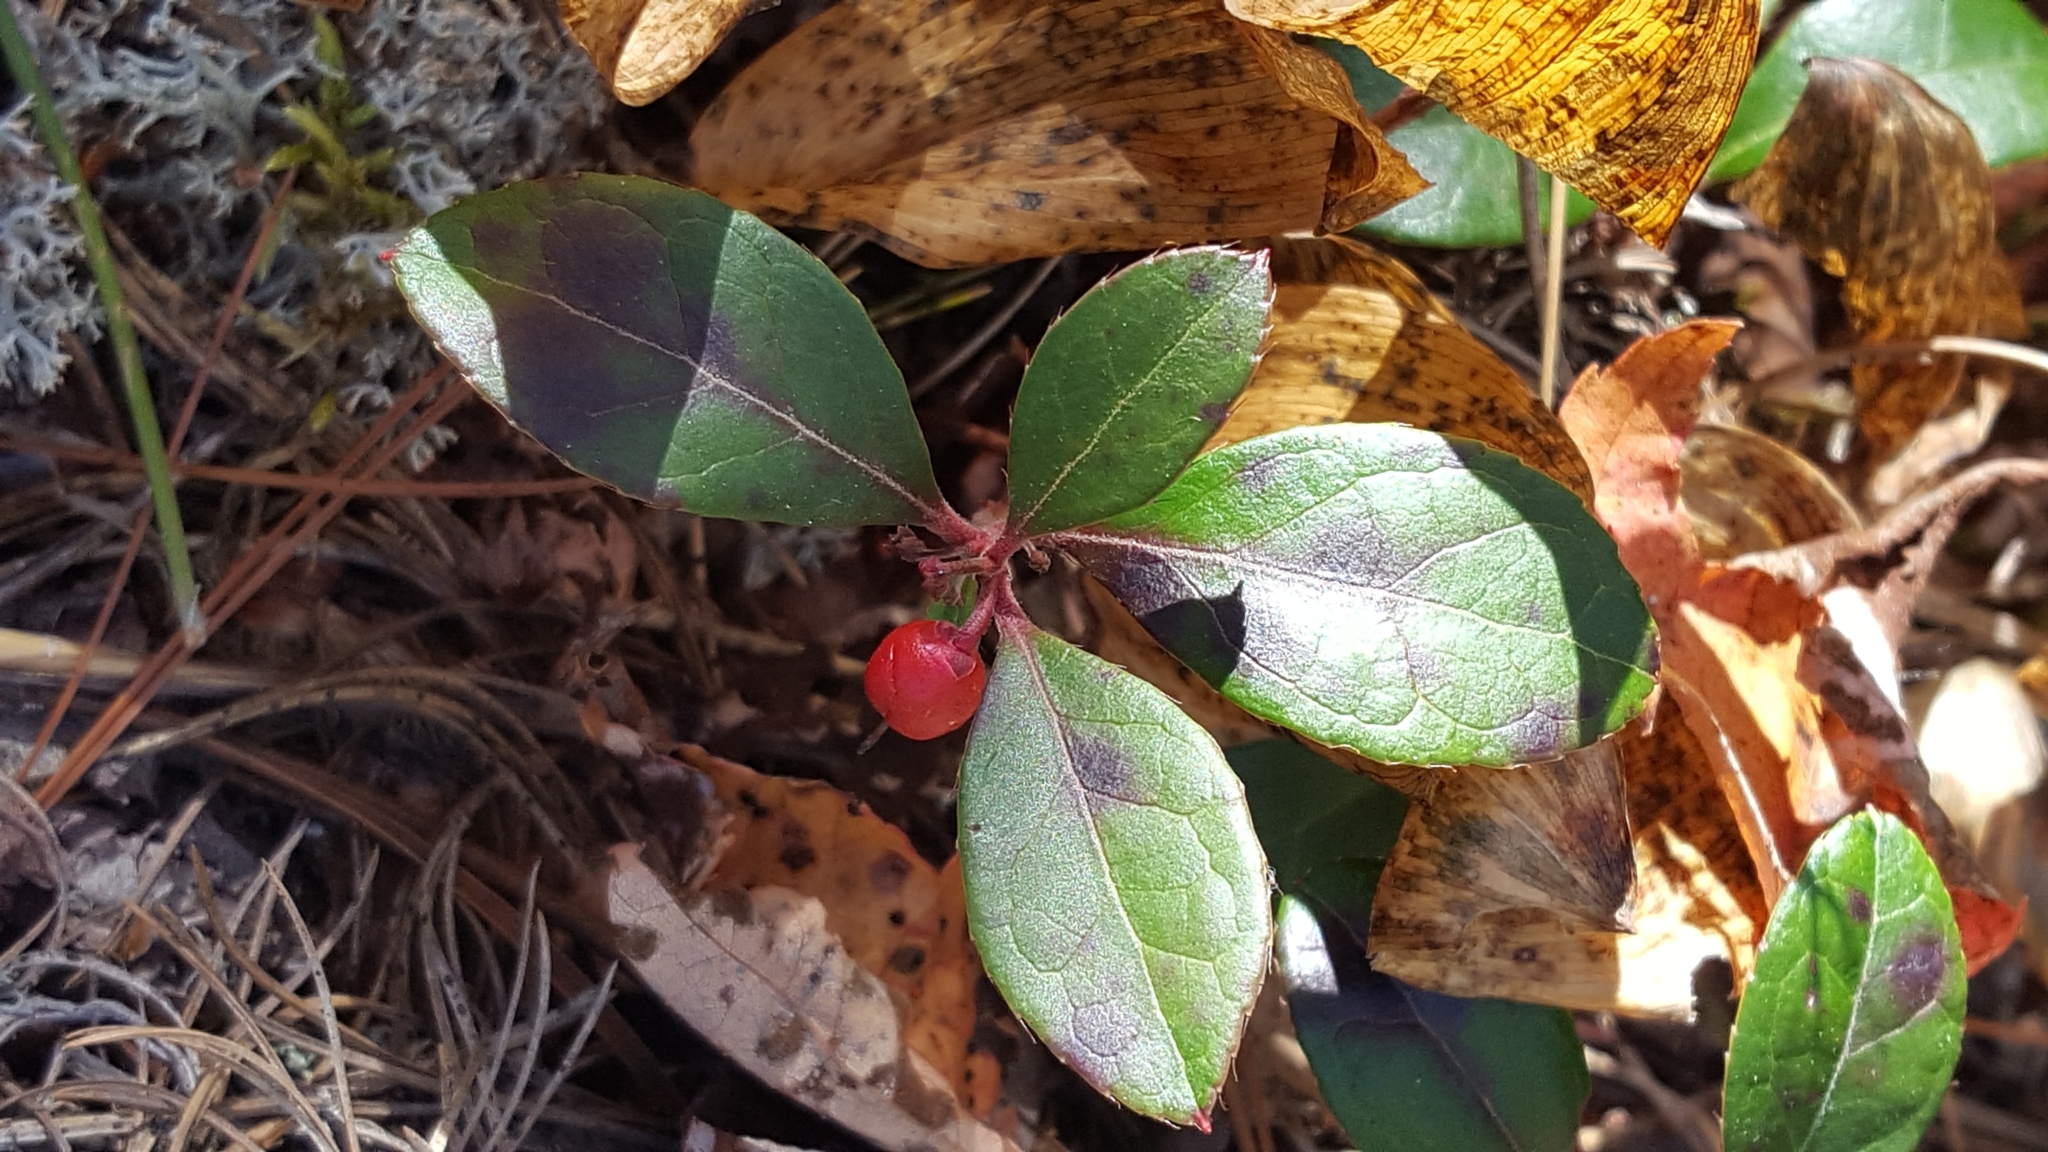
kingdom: Plantae
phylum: Tracheophyta
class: Magnoliopsida
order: Ericales
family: Ericaceae
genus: Gaultheria
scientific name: Gaultheria procumbens
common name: Checkerberry
